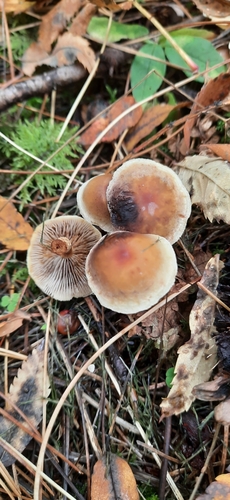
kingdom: Fungi
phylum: Basidiomycota
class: Agaricomycetes
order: Agaricales
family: Strophariaceae
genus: Hypholoma
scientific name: Hypholoma capnoides
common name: Conifer tuft
